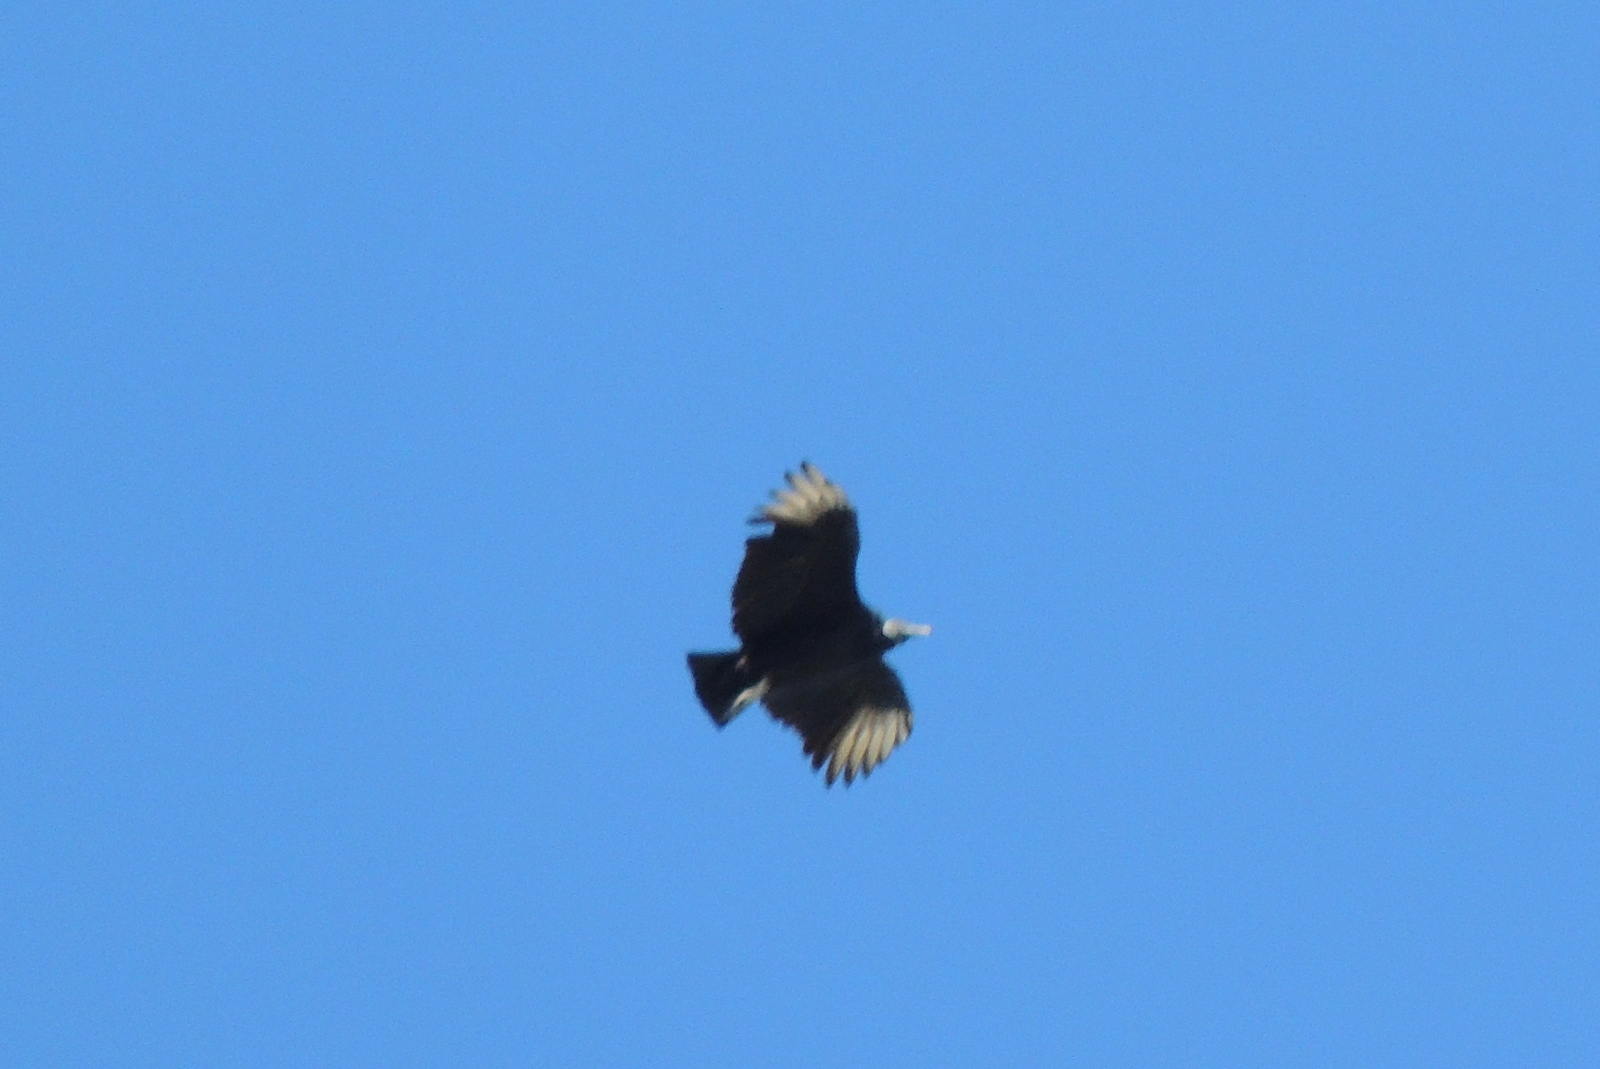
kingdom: Animalia
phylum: Chordata
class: Aves
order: Accipitriformes
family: Cathartidae
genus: Coragyps
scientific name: Coragyps atratus
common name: Black vulture
